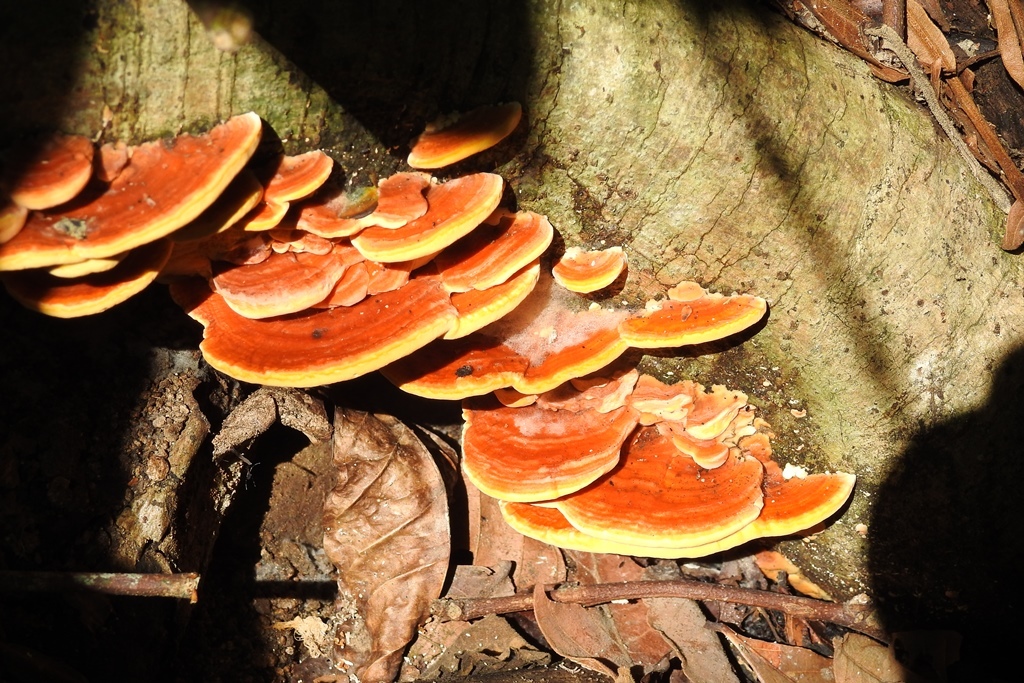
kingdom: Fungi
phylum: Basidiomycota
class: Agaricomycetes
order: Polyporales
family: Laetiporaceae
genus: Laetiporus
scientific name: Laetiporus gilbertsonii
